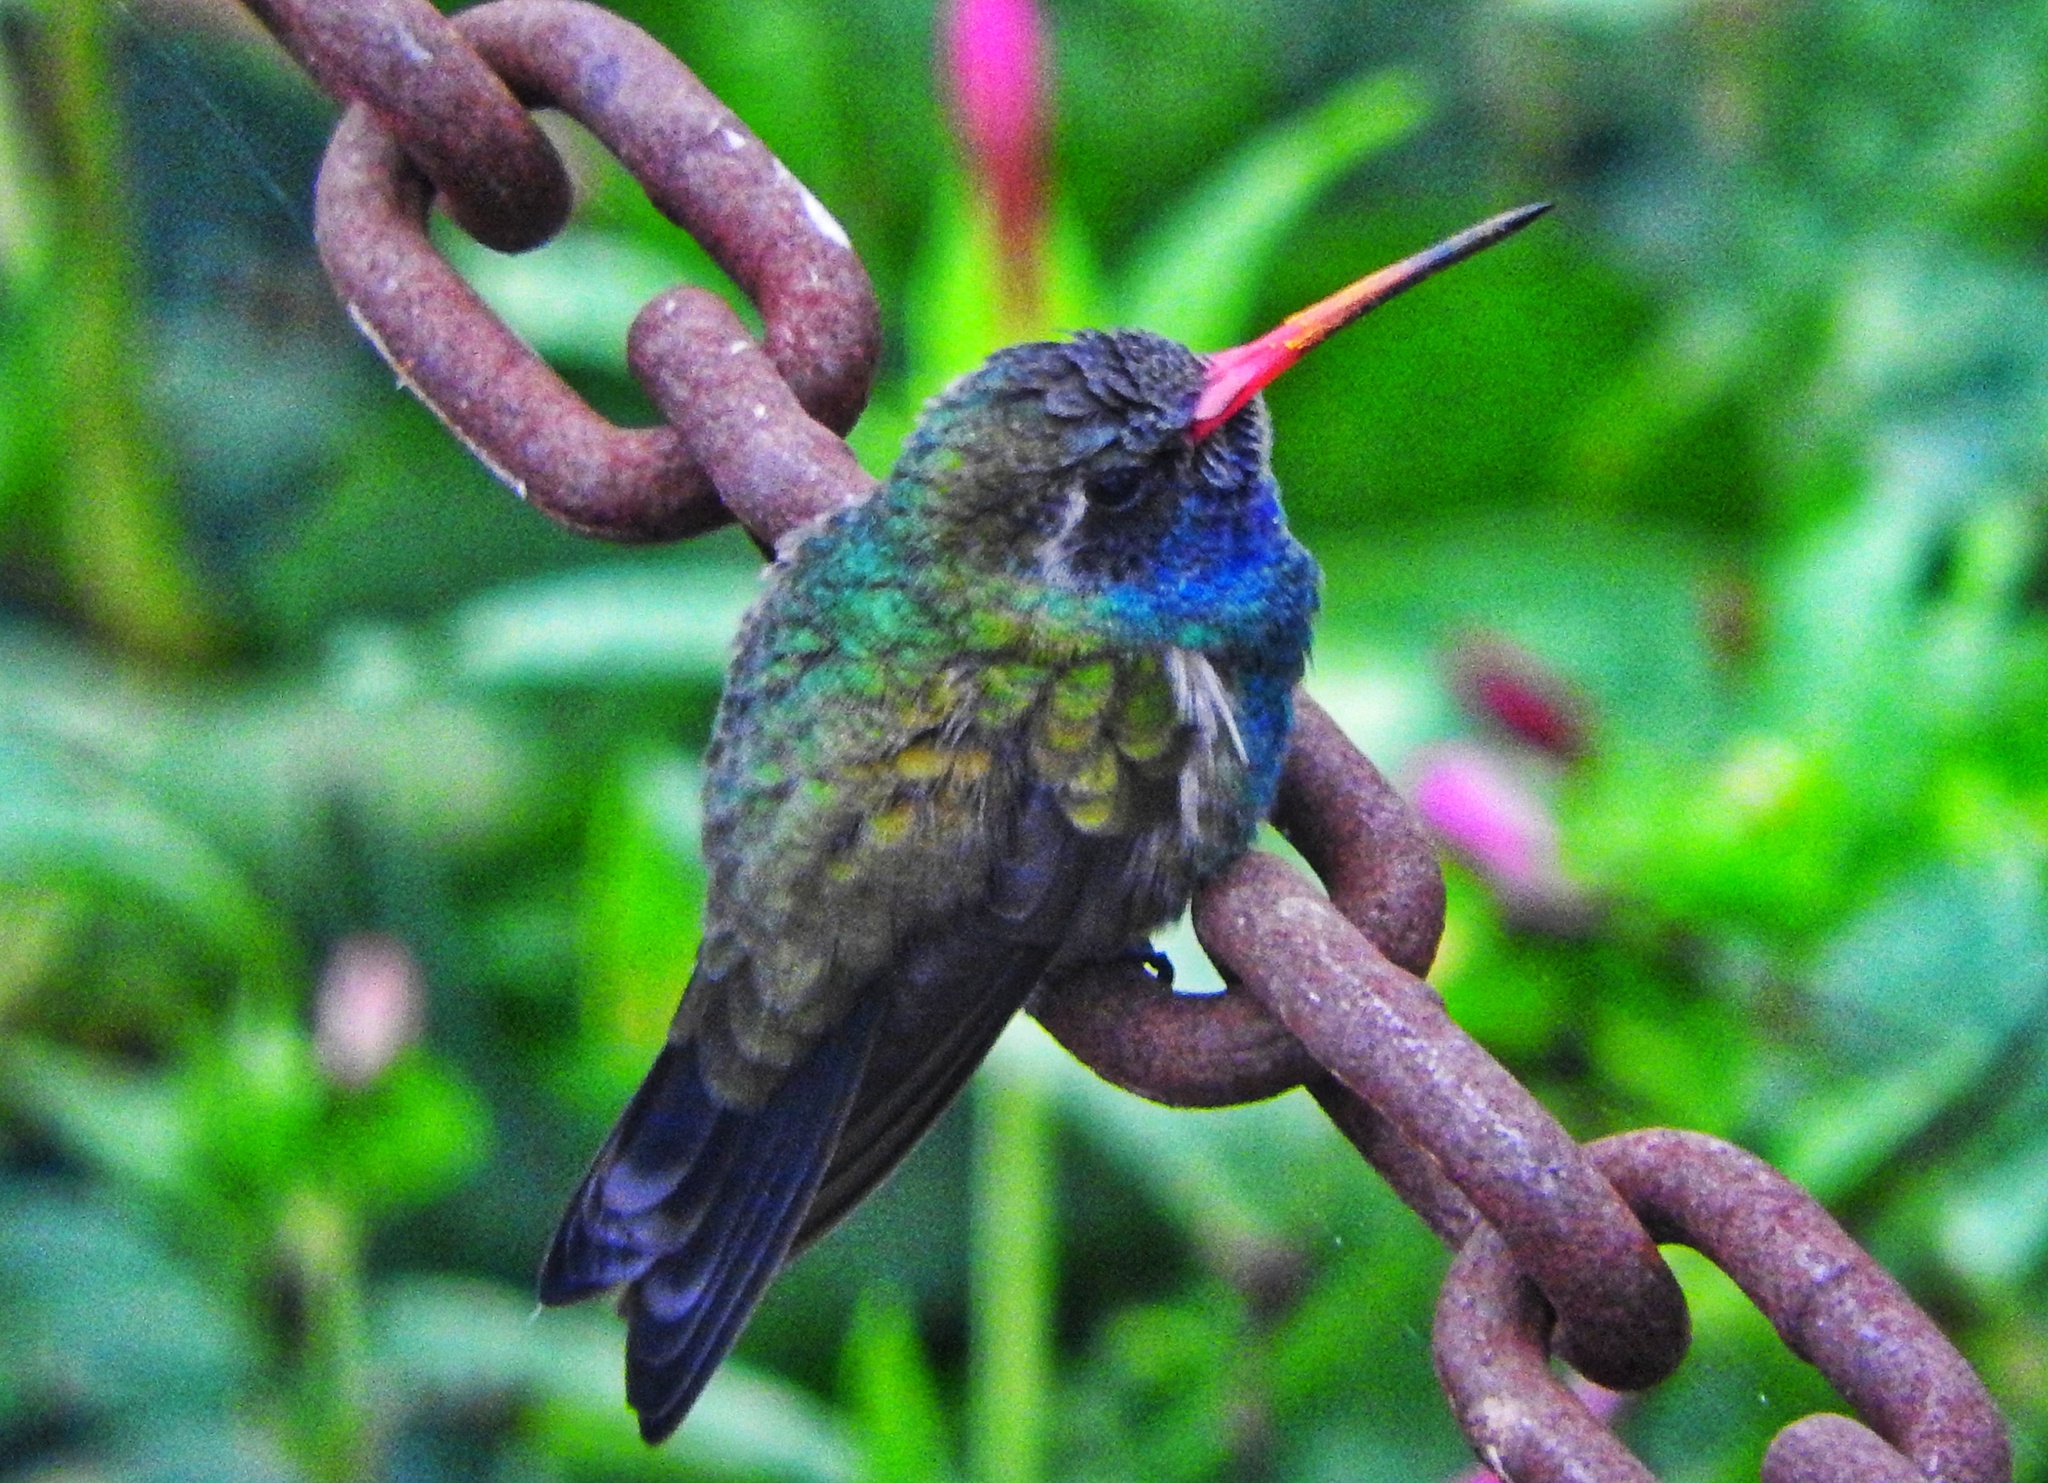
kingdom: Animalia
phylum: Chordata
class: Aves
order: Apodiformes
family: Trochilidae
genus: Cynanthus
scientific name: Cynanthus latirostris
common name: Broad-billed hummingbird
